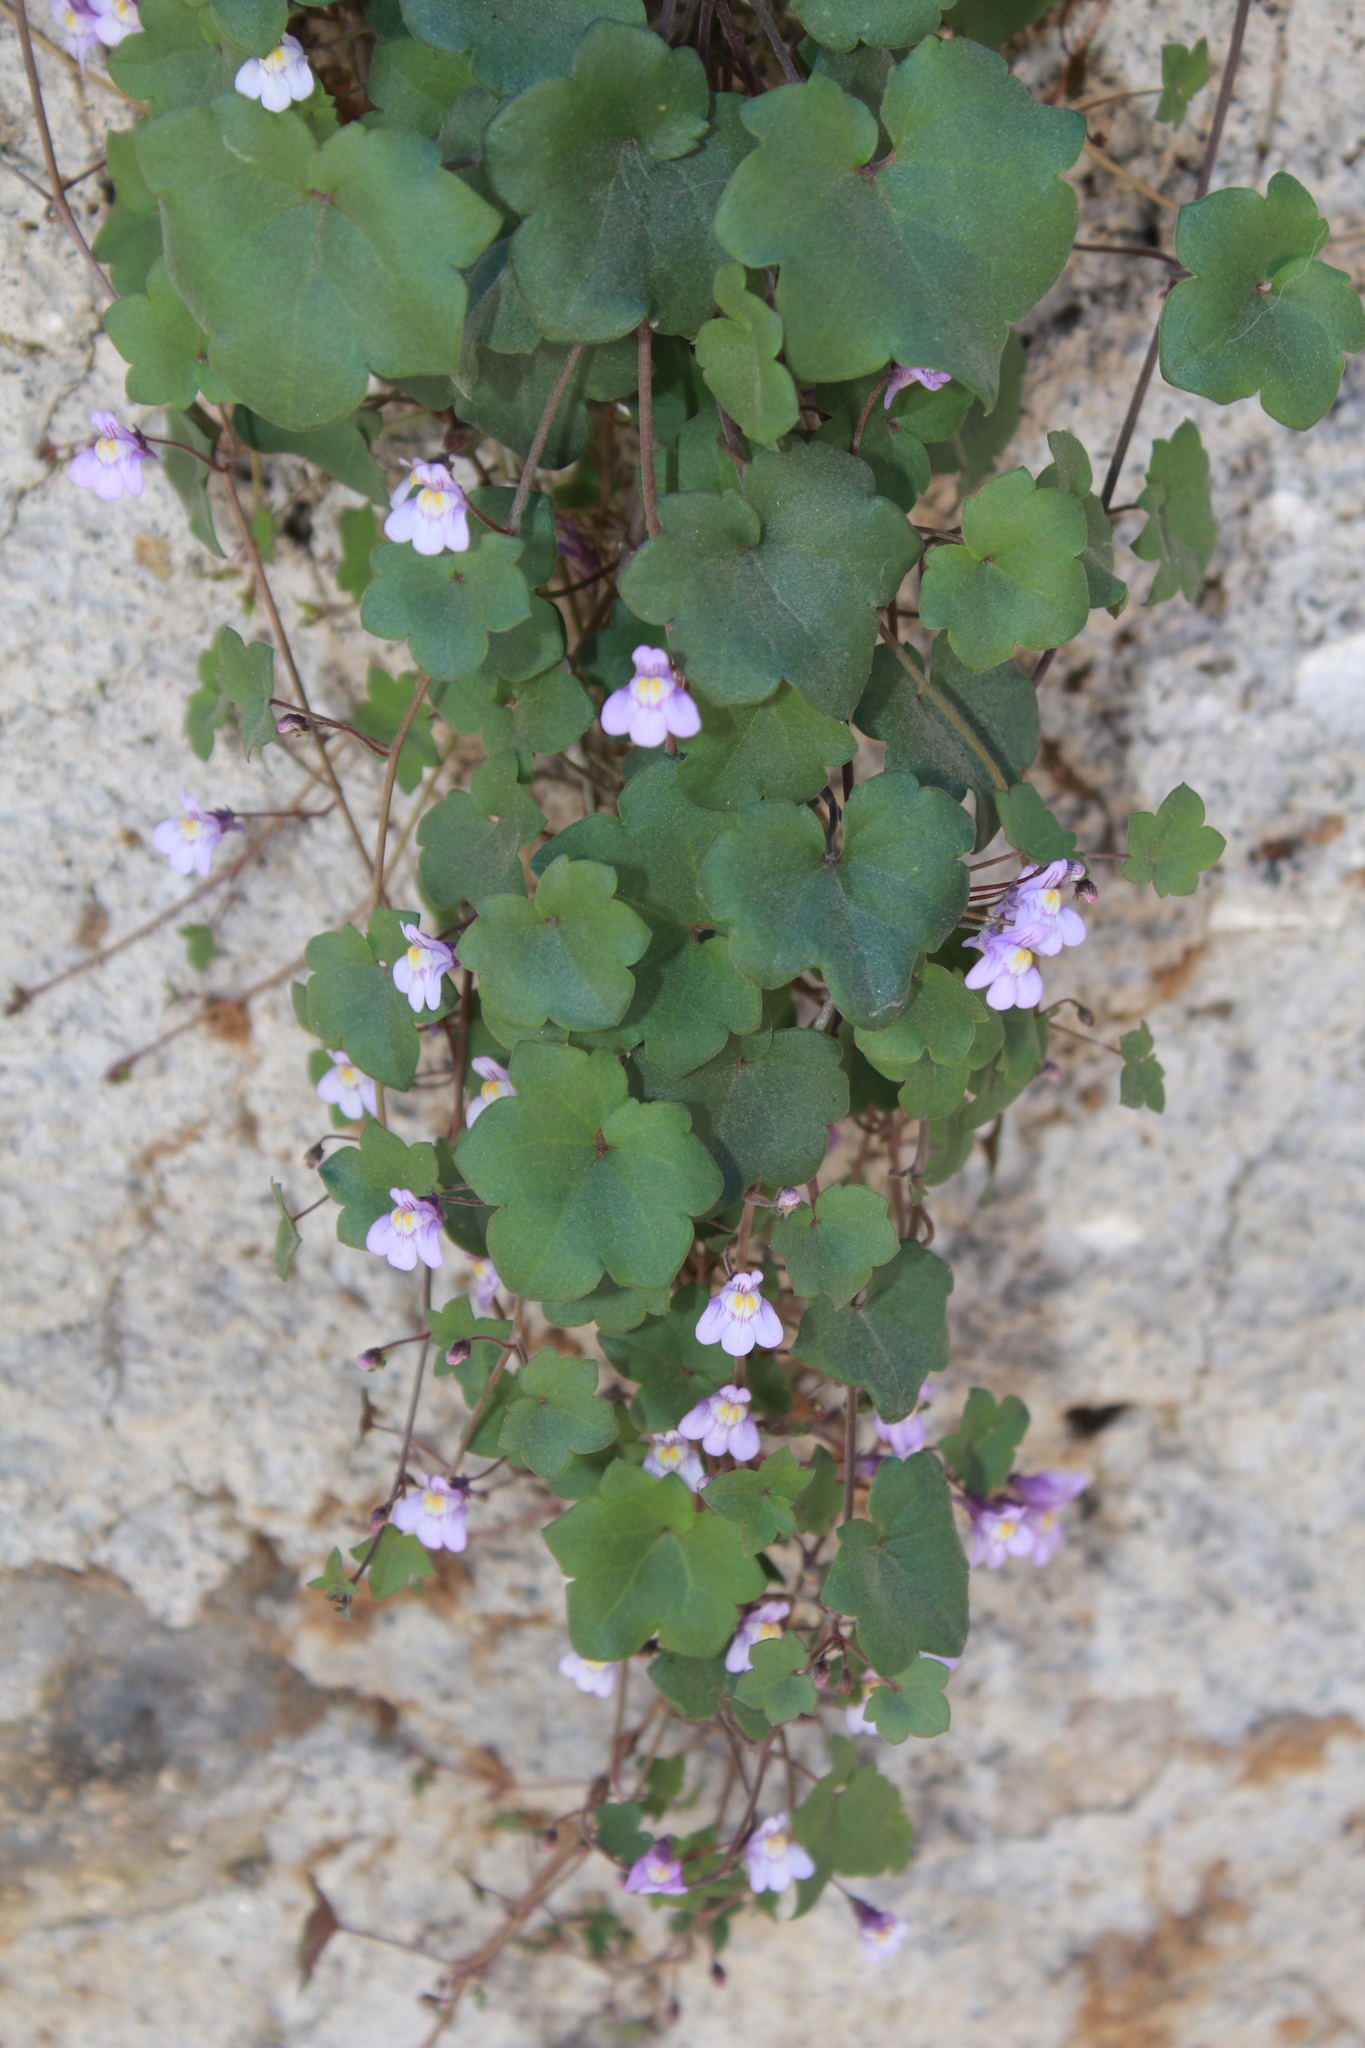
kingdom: Plantae
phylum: Tracheophyta
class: Magnoliopsida
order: Lamiales
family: Plantaginaceae
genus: Cymbalaria
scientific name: Cymbalaria muralis
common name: Ivy-leaved toadflax
